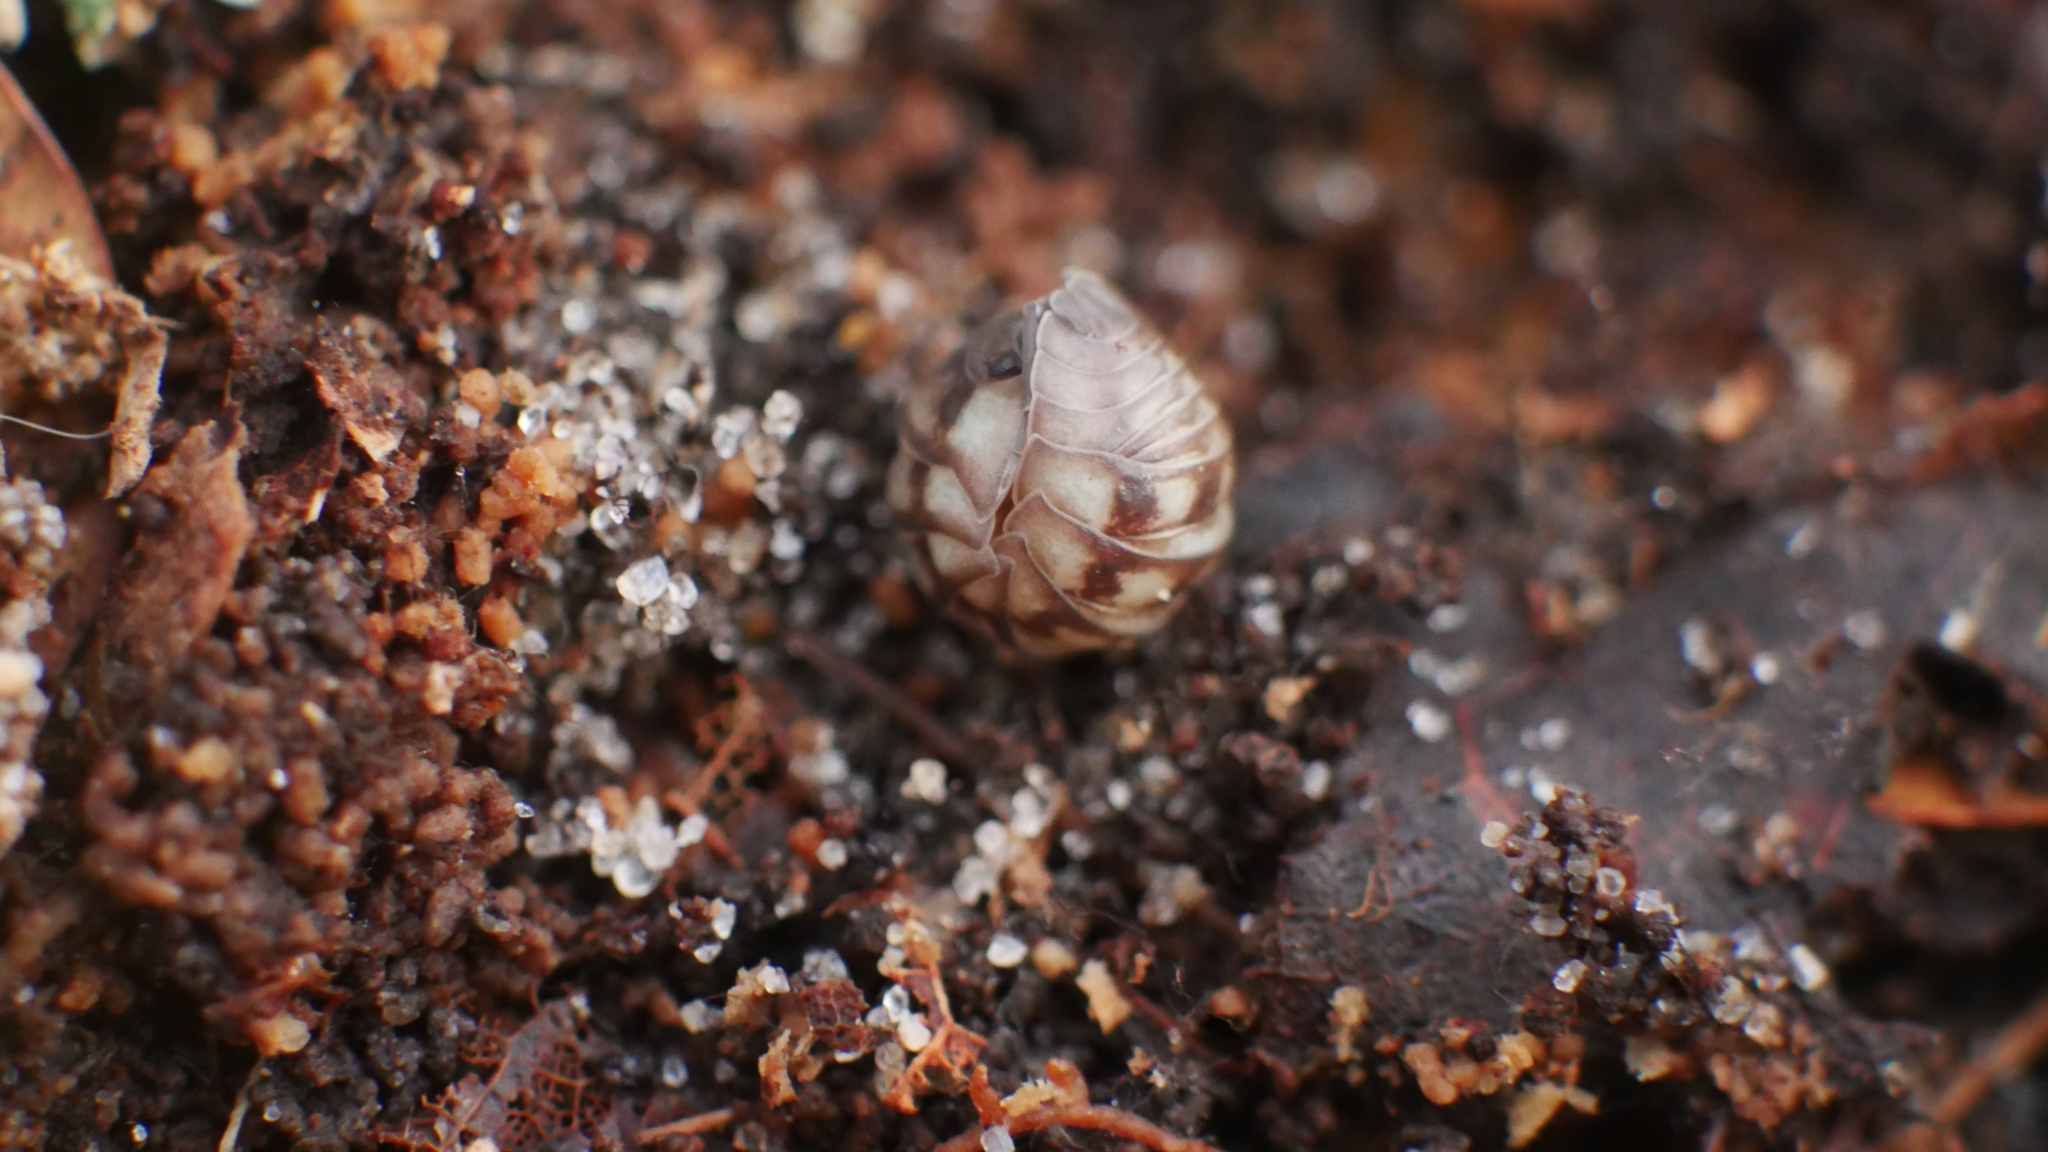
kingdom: Animalia
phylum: Arthropoda
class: Malacostraca
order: Isopoda
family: Armadillidiidae
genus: Armadillidium
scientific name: Armadillidium nasatum
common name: Isopod
